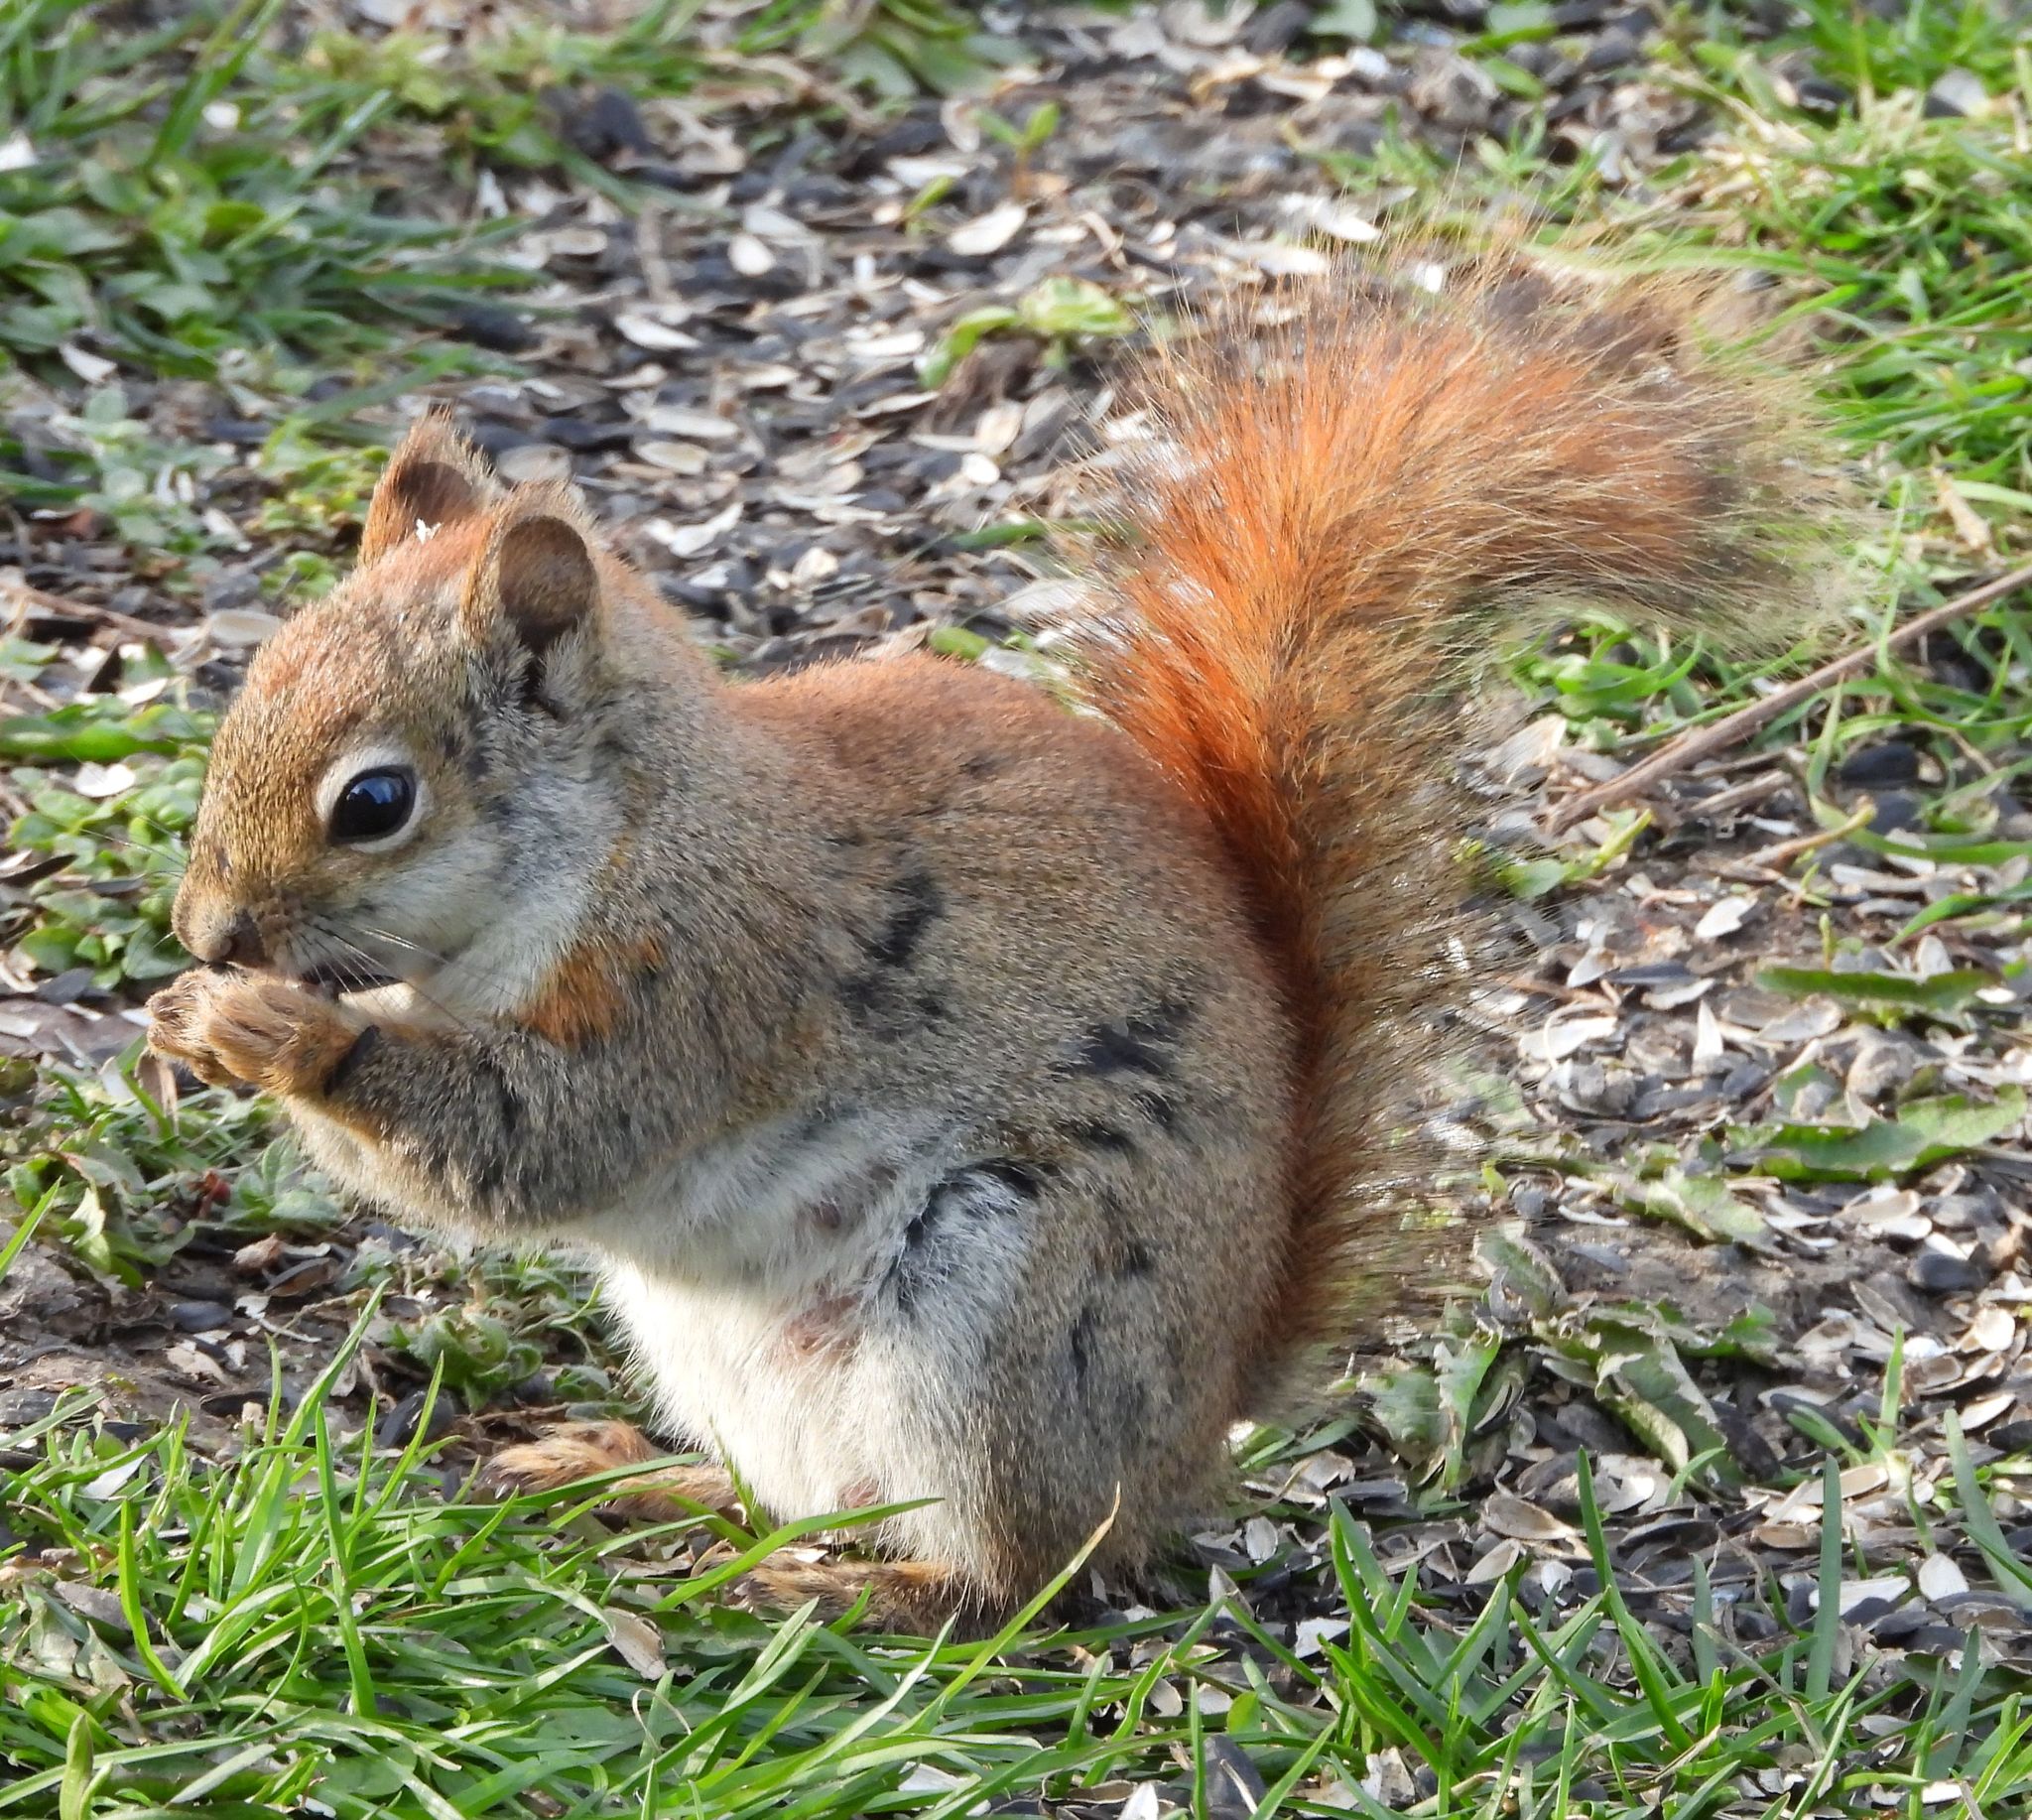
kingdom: Animalia
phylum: Chordata
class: Mammalia
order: Rodentia
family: Sciuridae
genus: Tamiasciurus
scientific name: Tamiasciurus hudsonicus
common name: Red squirrel
